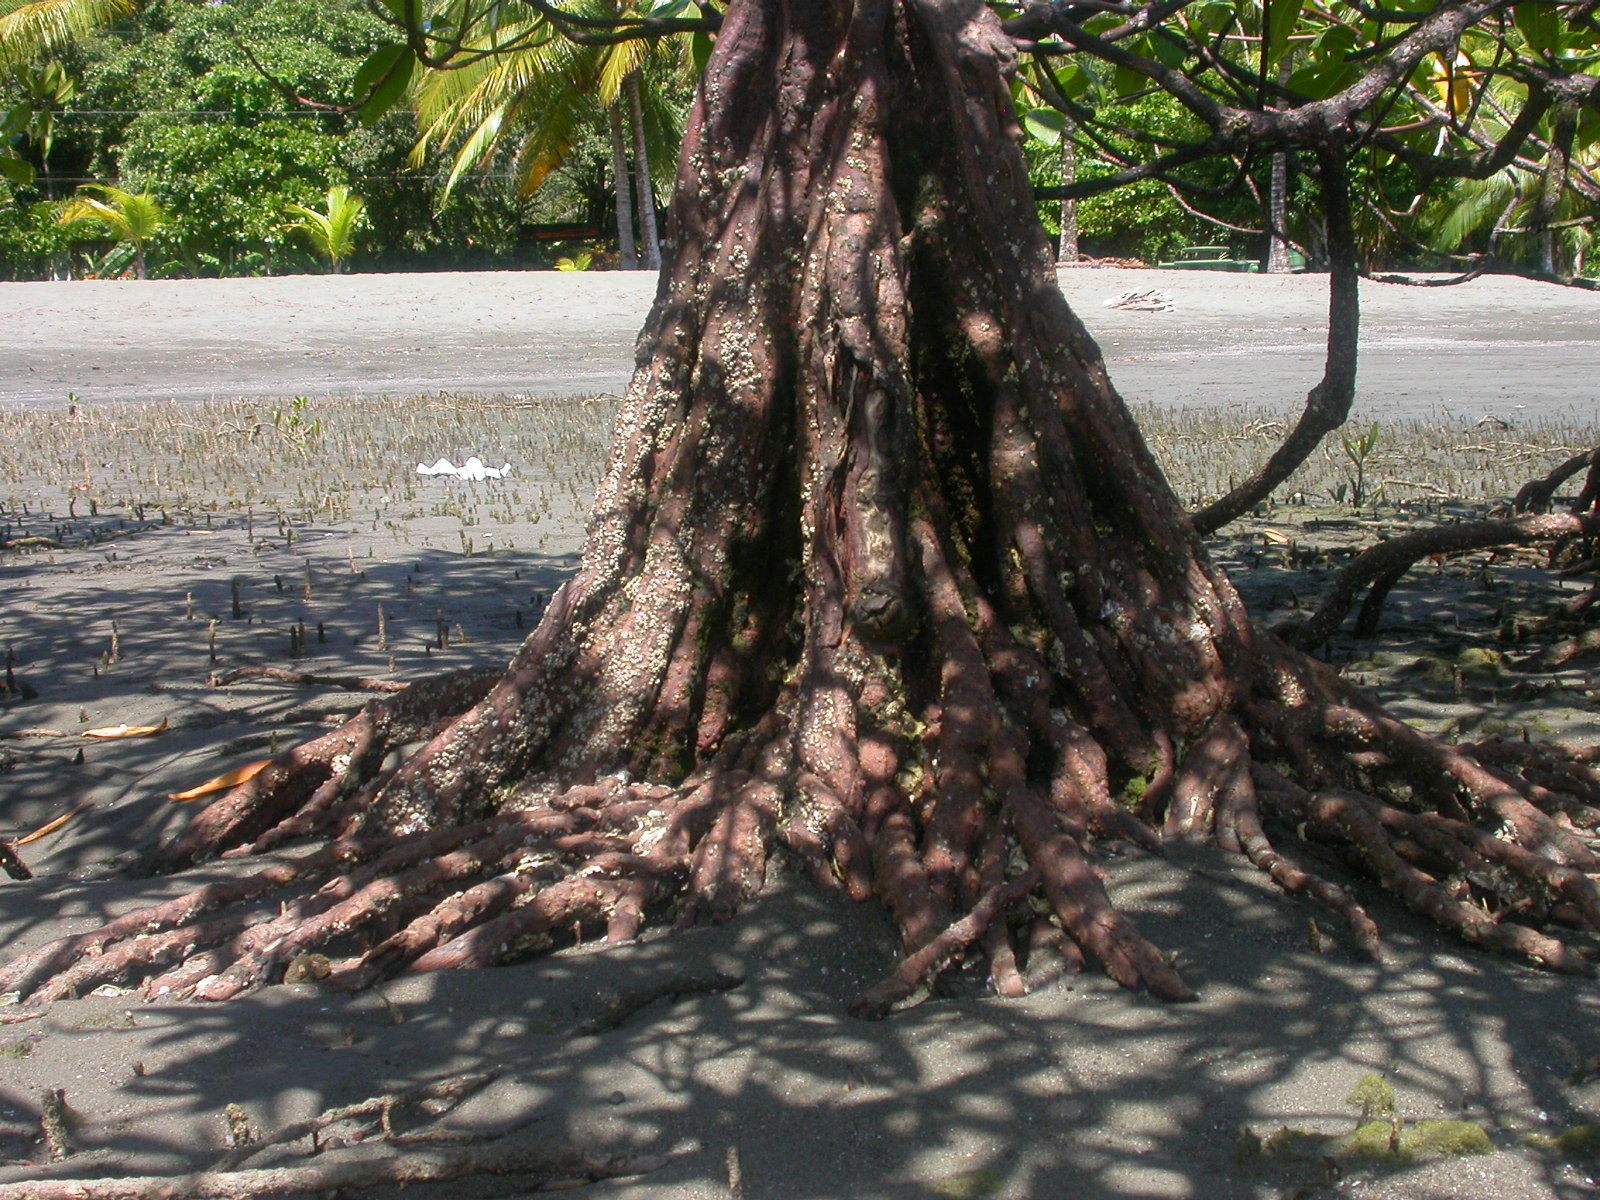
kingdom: Plantae
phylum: Tracheophyta
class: Magnoliopsida
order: Ericales
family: Tetrameristaceae
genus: Pelliciera
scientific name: Pelliciera rhizophorae
